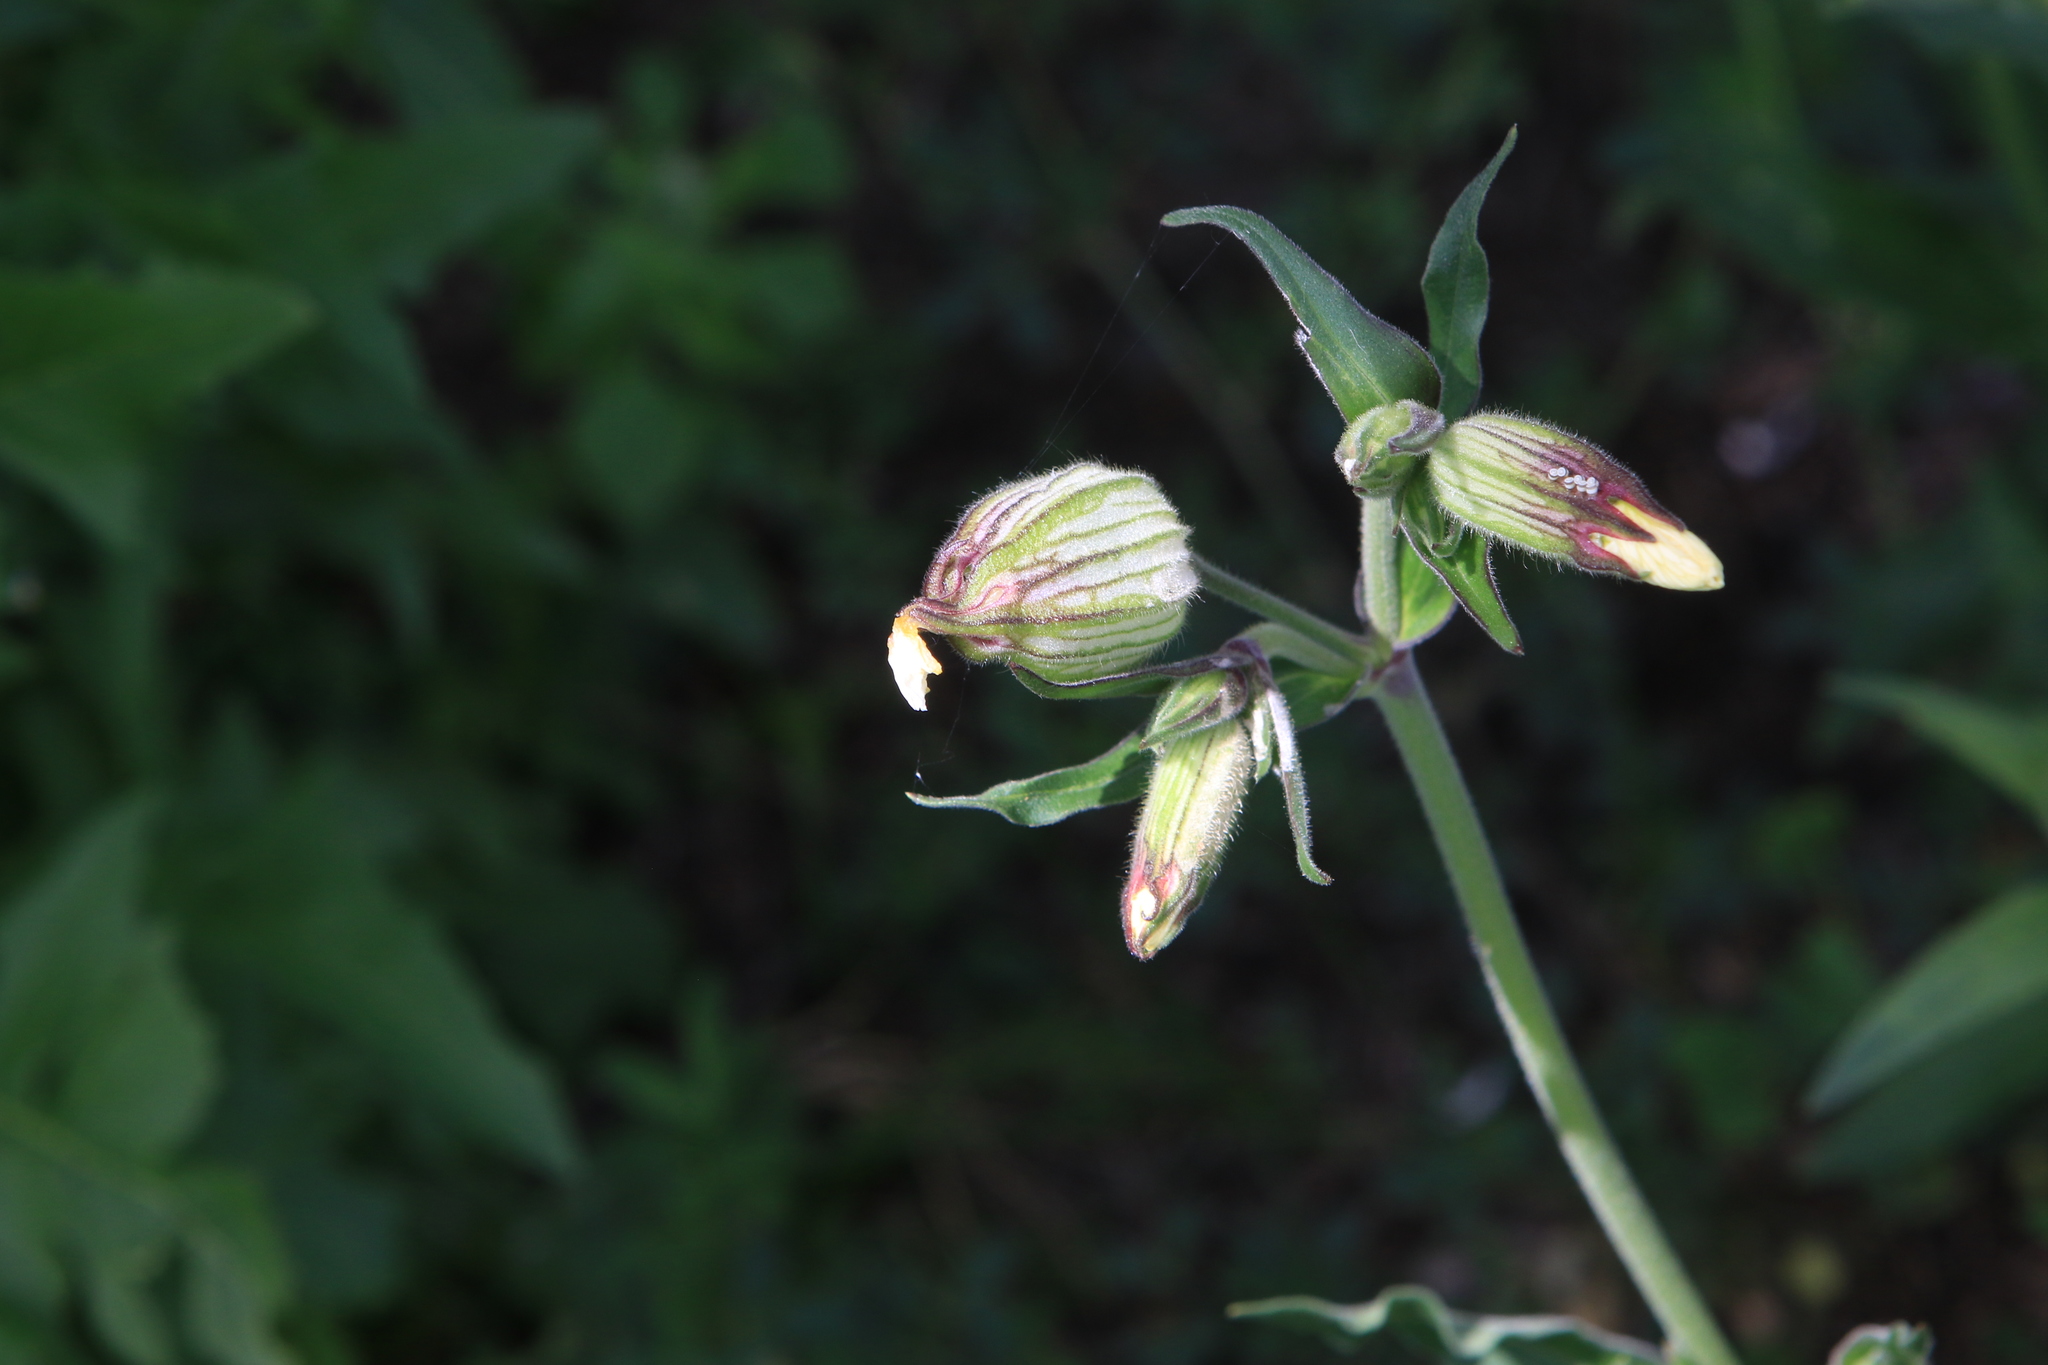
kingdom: Plantae
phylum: Tracheophyta
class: Magnoliopsida
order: Caryophyllales
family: Caryophyllaceae
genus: Silene
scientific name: Silene latifolia
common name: White campion
